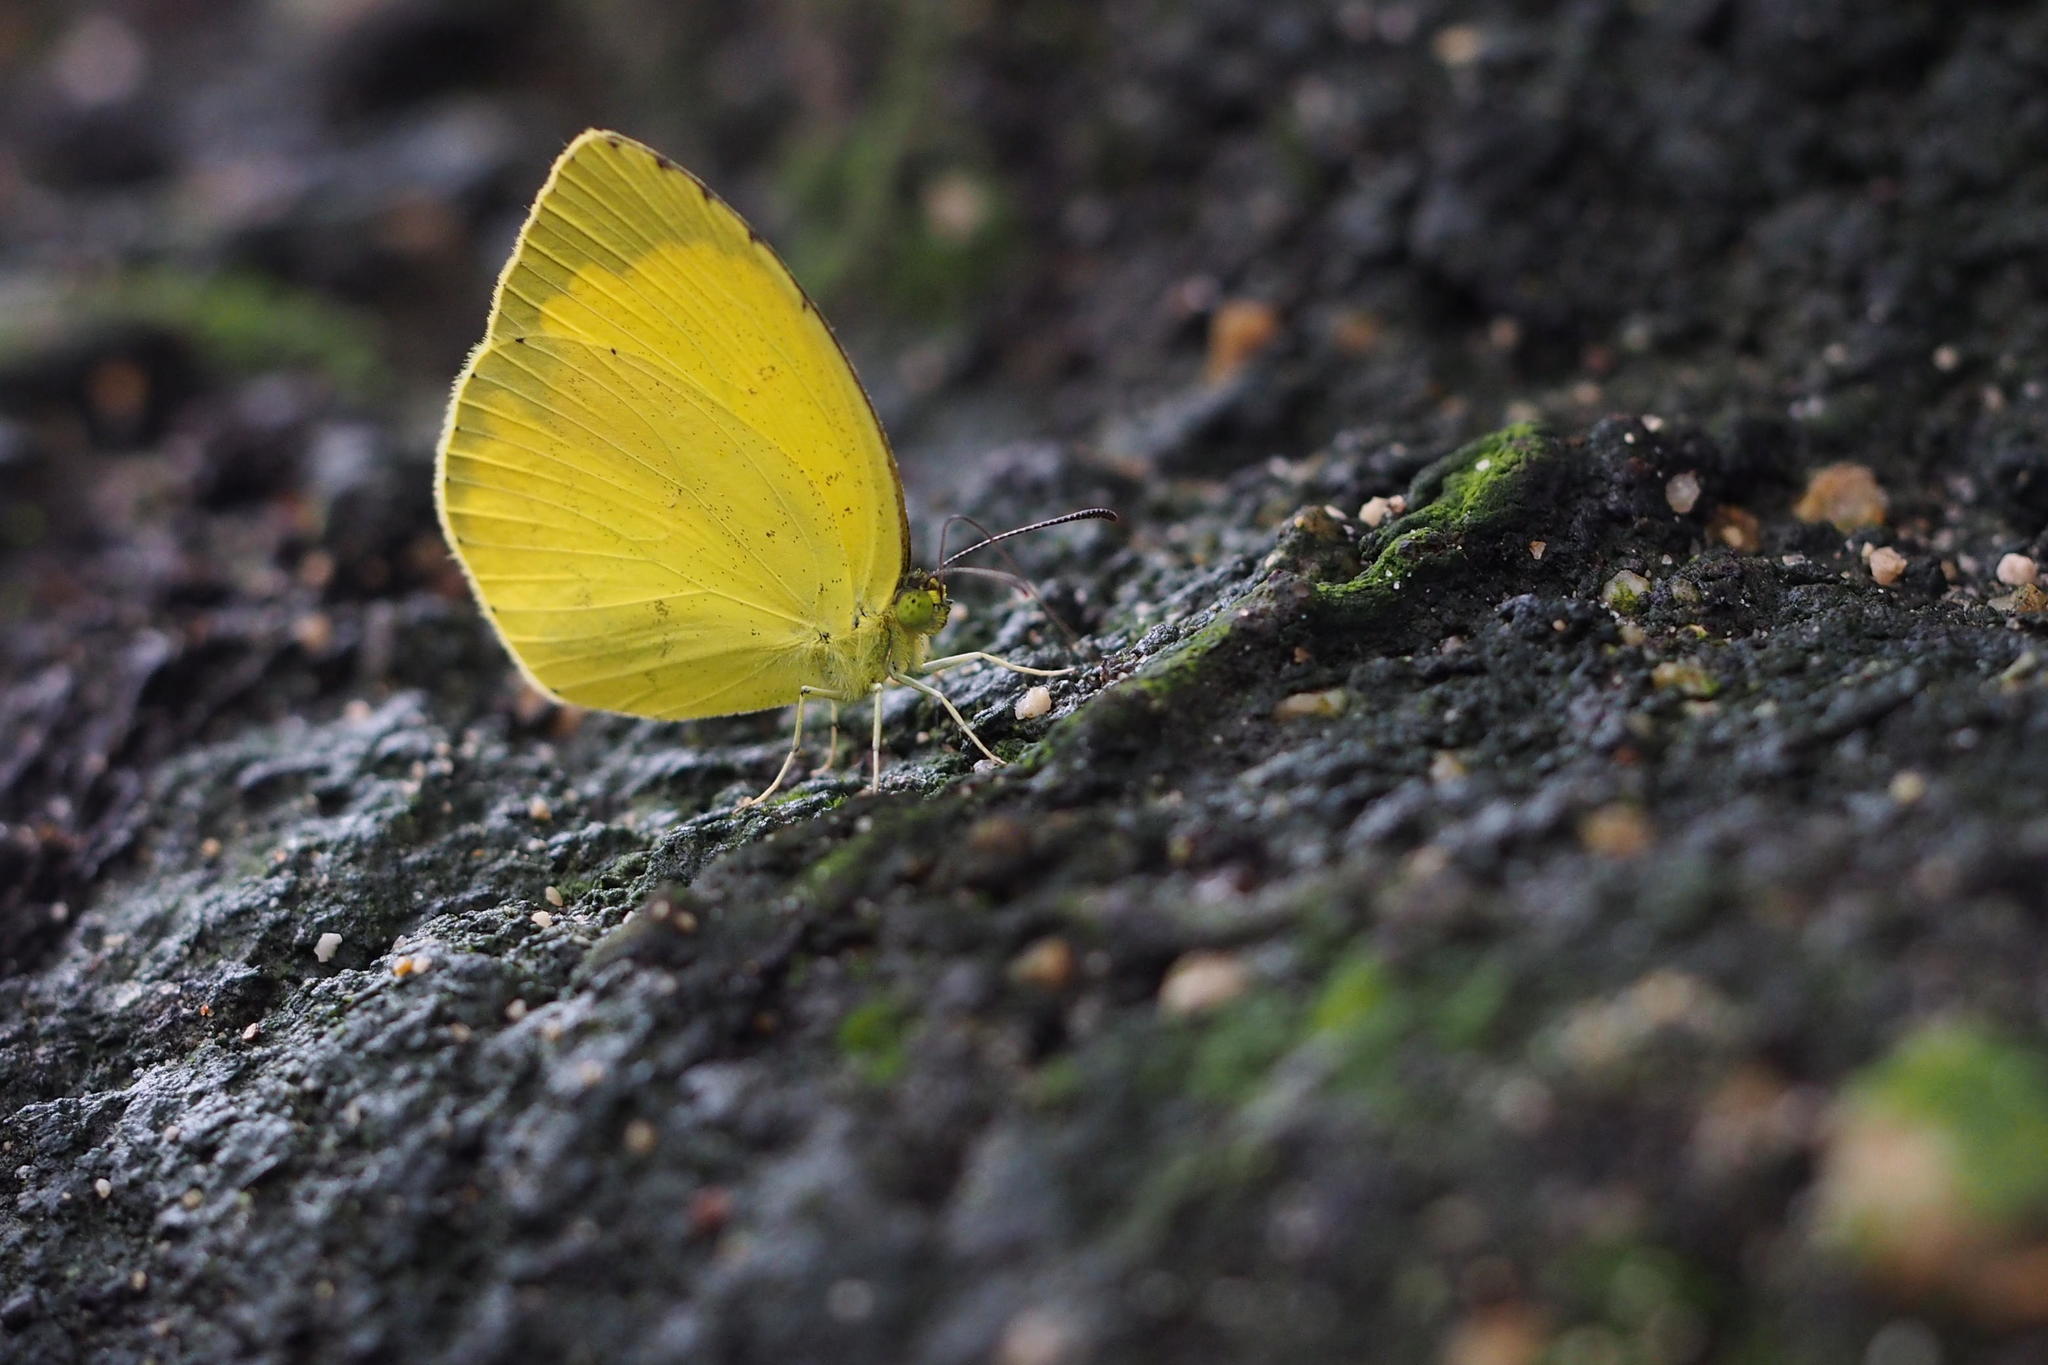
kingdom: Animalia
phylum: Arthropoda
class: Insecta
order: Lepidoptera
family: Pieridae
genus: Eurema
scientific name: Eurema mandarina
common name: Japanese common grass yellow
